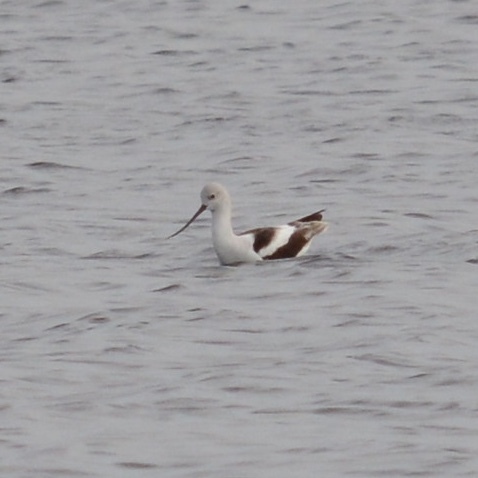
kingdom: Animalia
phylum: Chordata
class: Aves
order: Charadriiformes
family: Recurvirostridae
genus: Recurvirostra
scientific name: Recurvirostra americana
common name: American avocet
